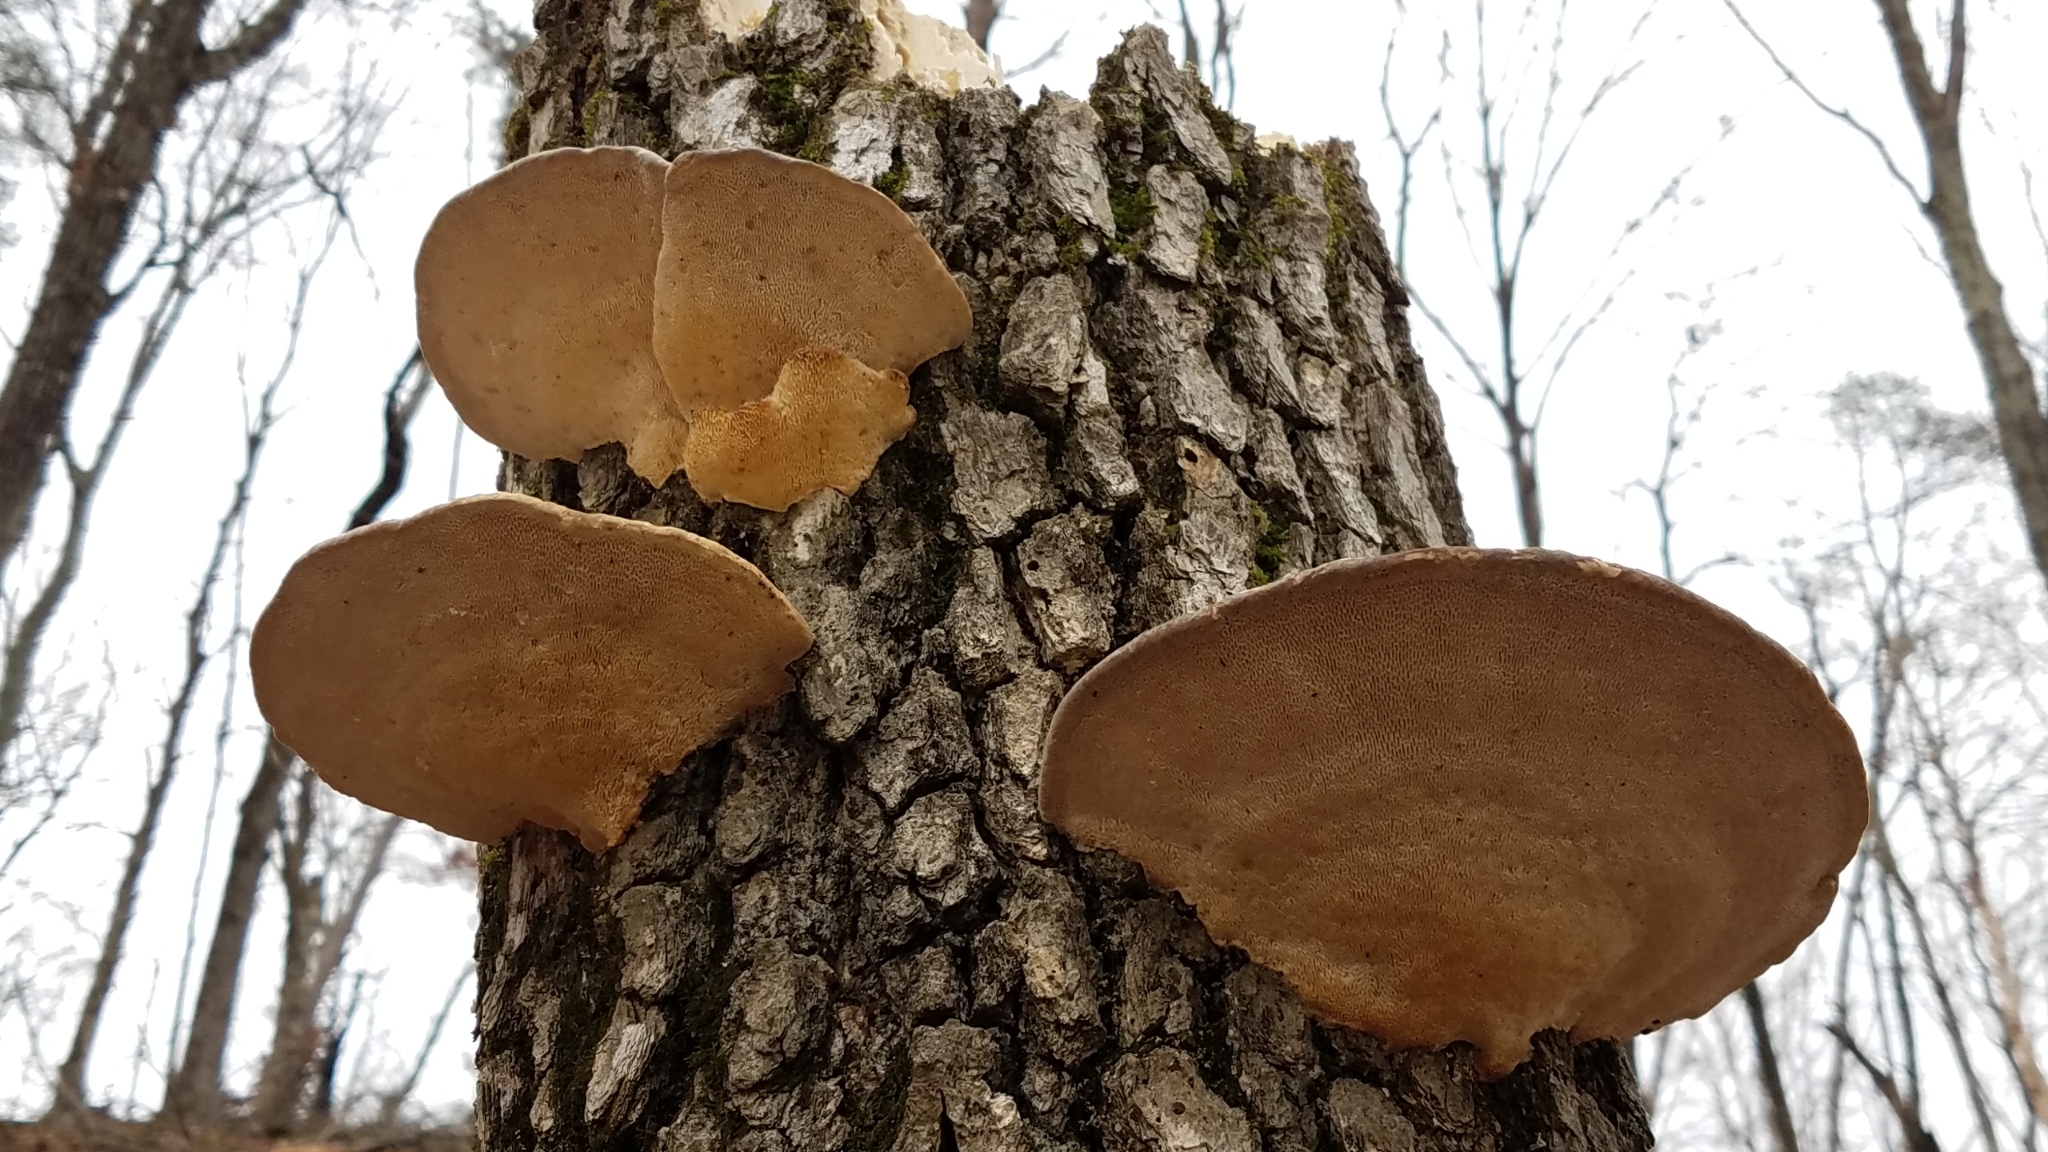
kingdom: Fungi
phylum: Basidiomycota
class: Agaricomycetes
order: Polyporales
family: Polyporaceae
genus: Trametes
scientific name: Trametes gibbosa
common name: Lumpy bracket
